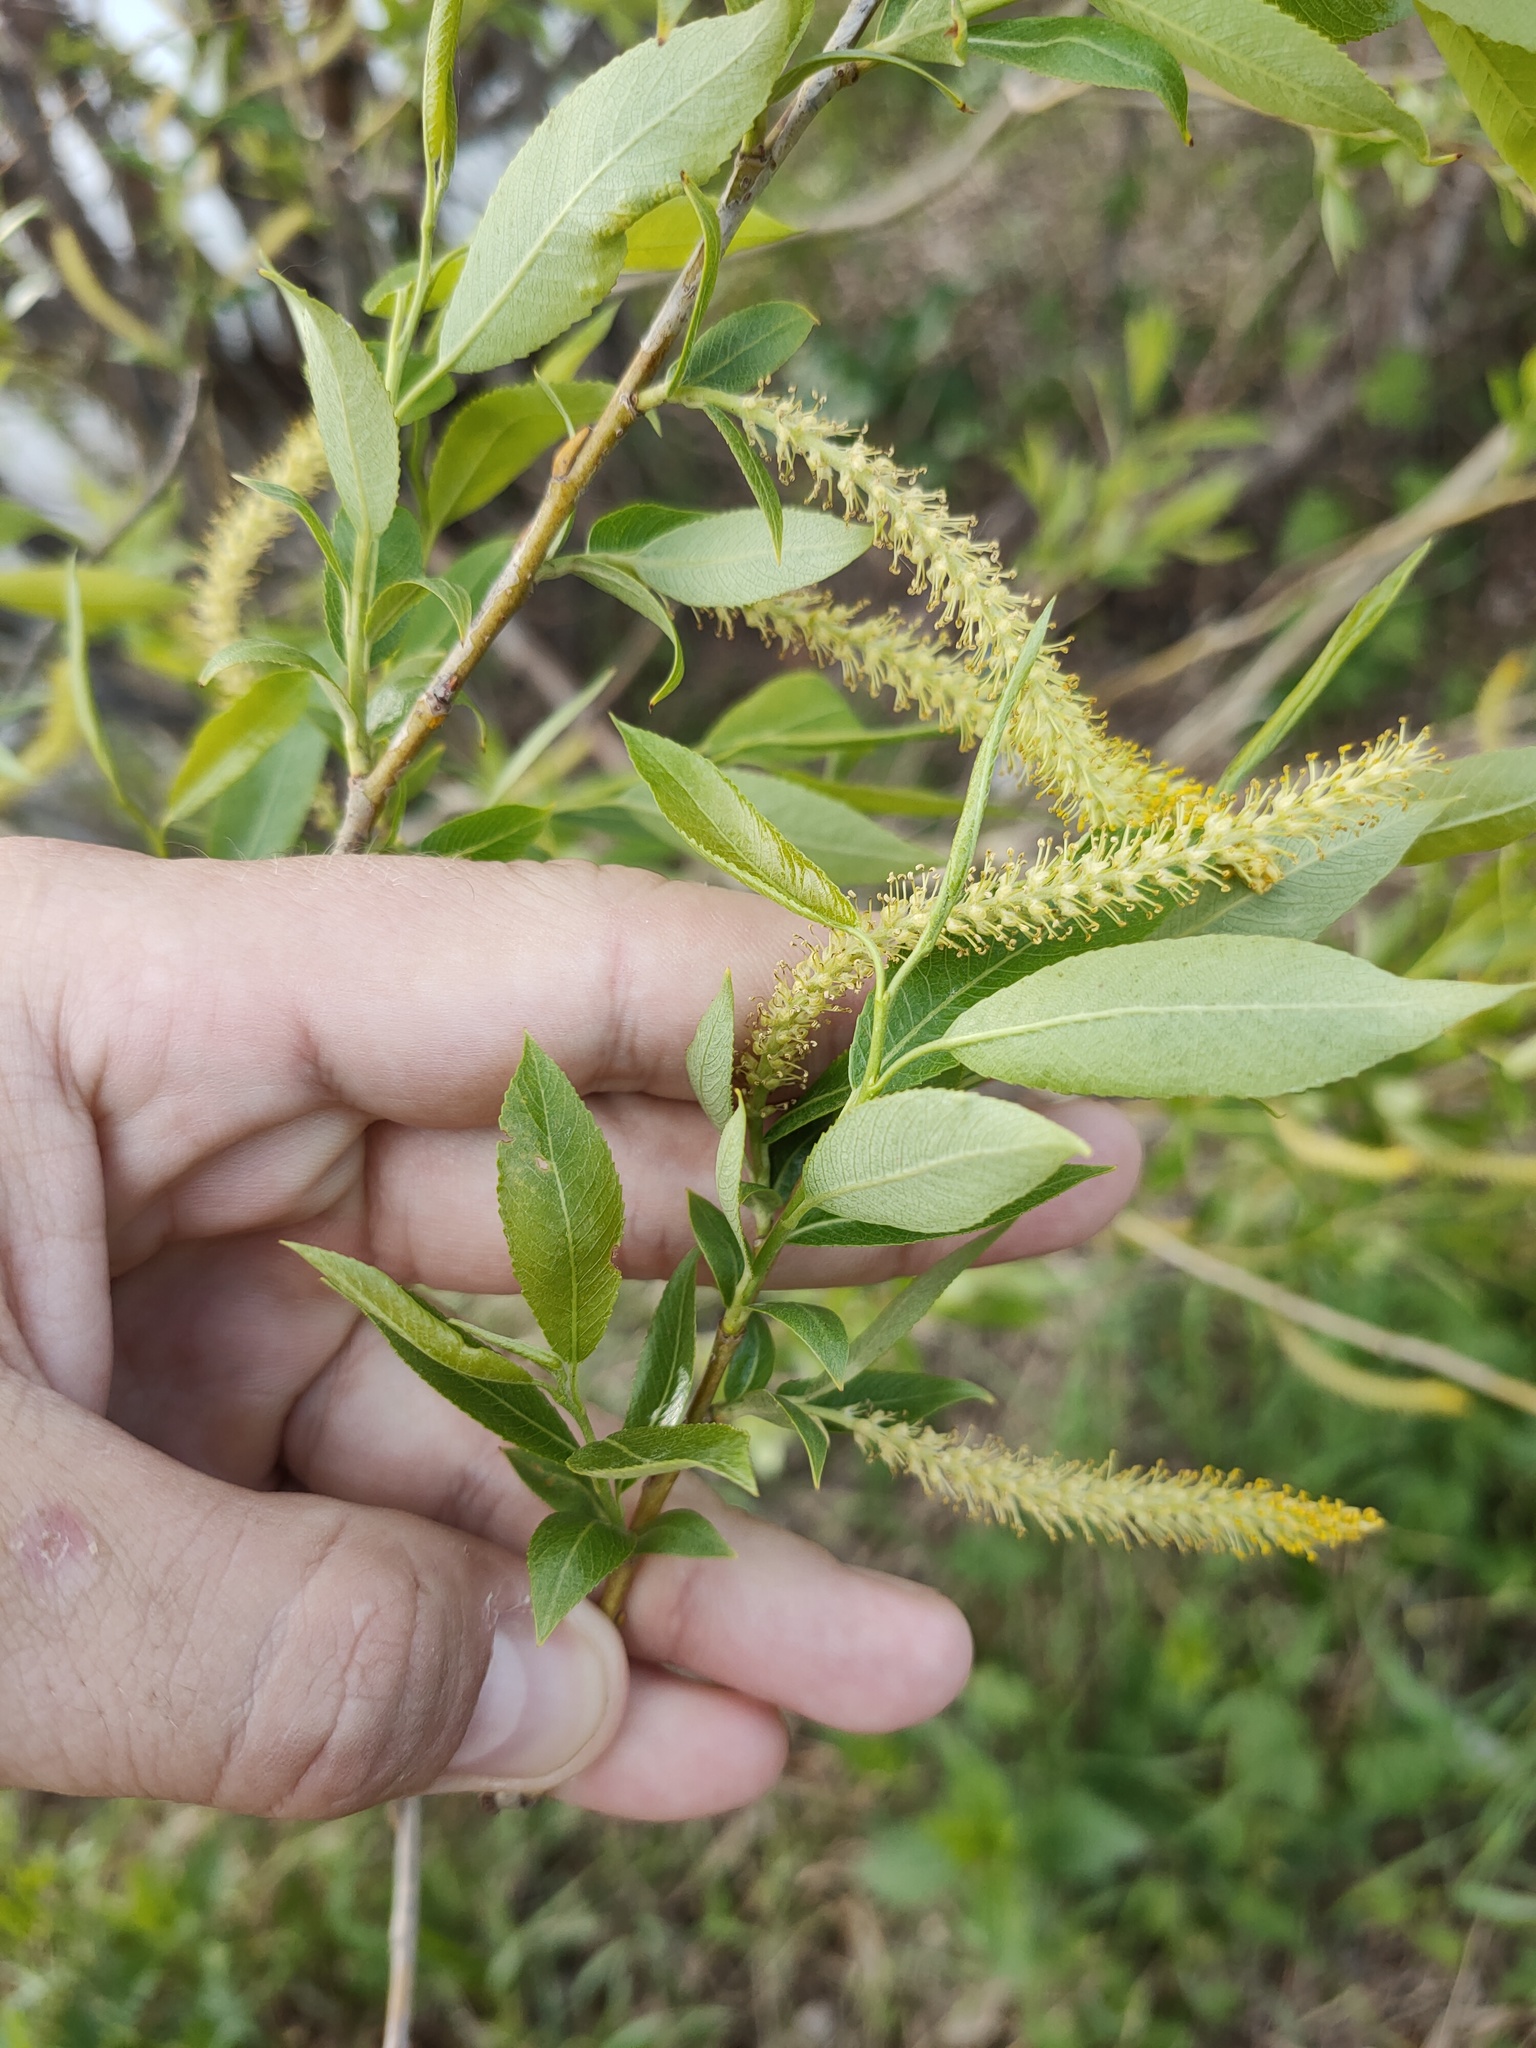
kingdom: Plantae
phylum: Tracheophyta
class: Magnoliopsida
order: Malpighiales
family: Salicaceae
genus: Salix
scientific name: Salix triandra
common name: Almond willow
